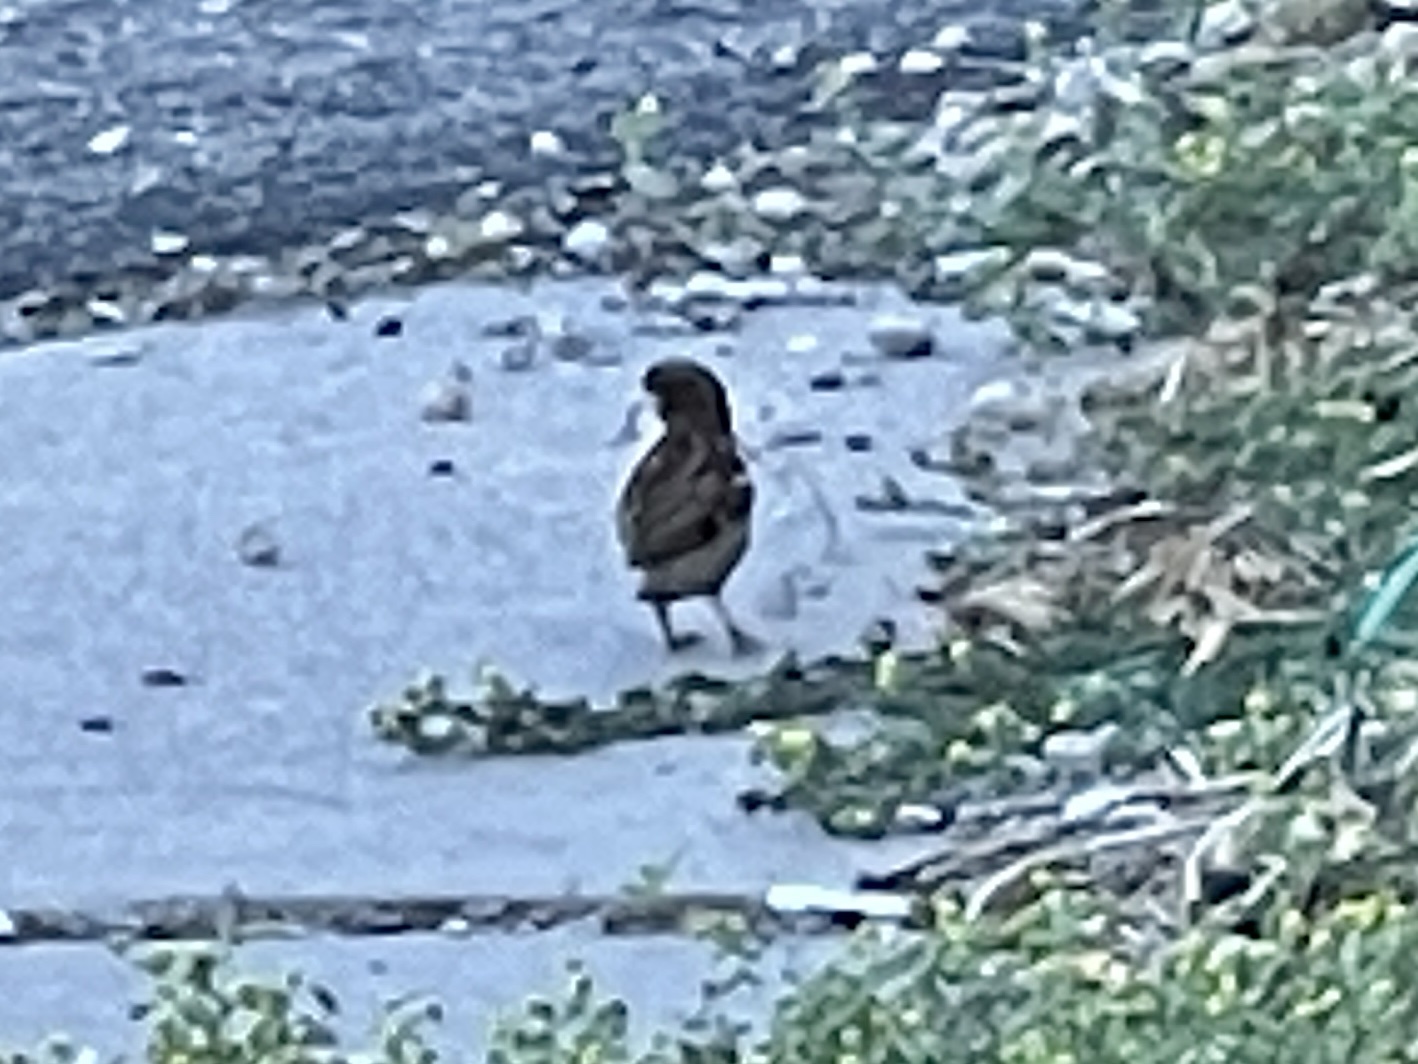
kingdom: Animalia
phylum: Chordata
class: Aves
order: Passeriformes
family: Passeridae
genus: Passer
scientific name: Passer domesticus
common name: House sparrow
